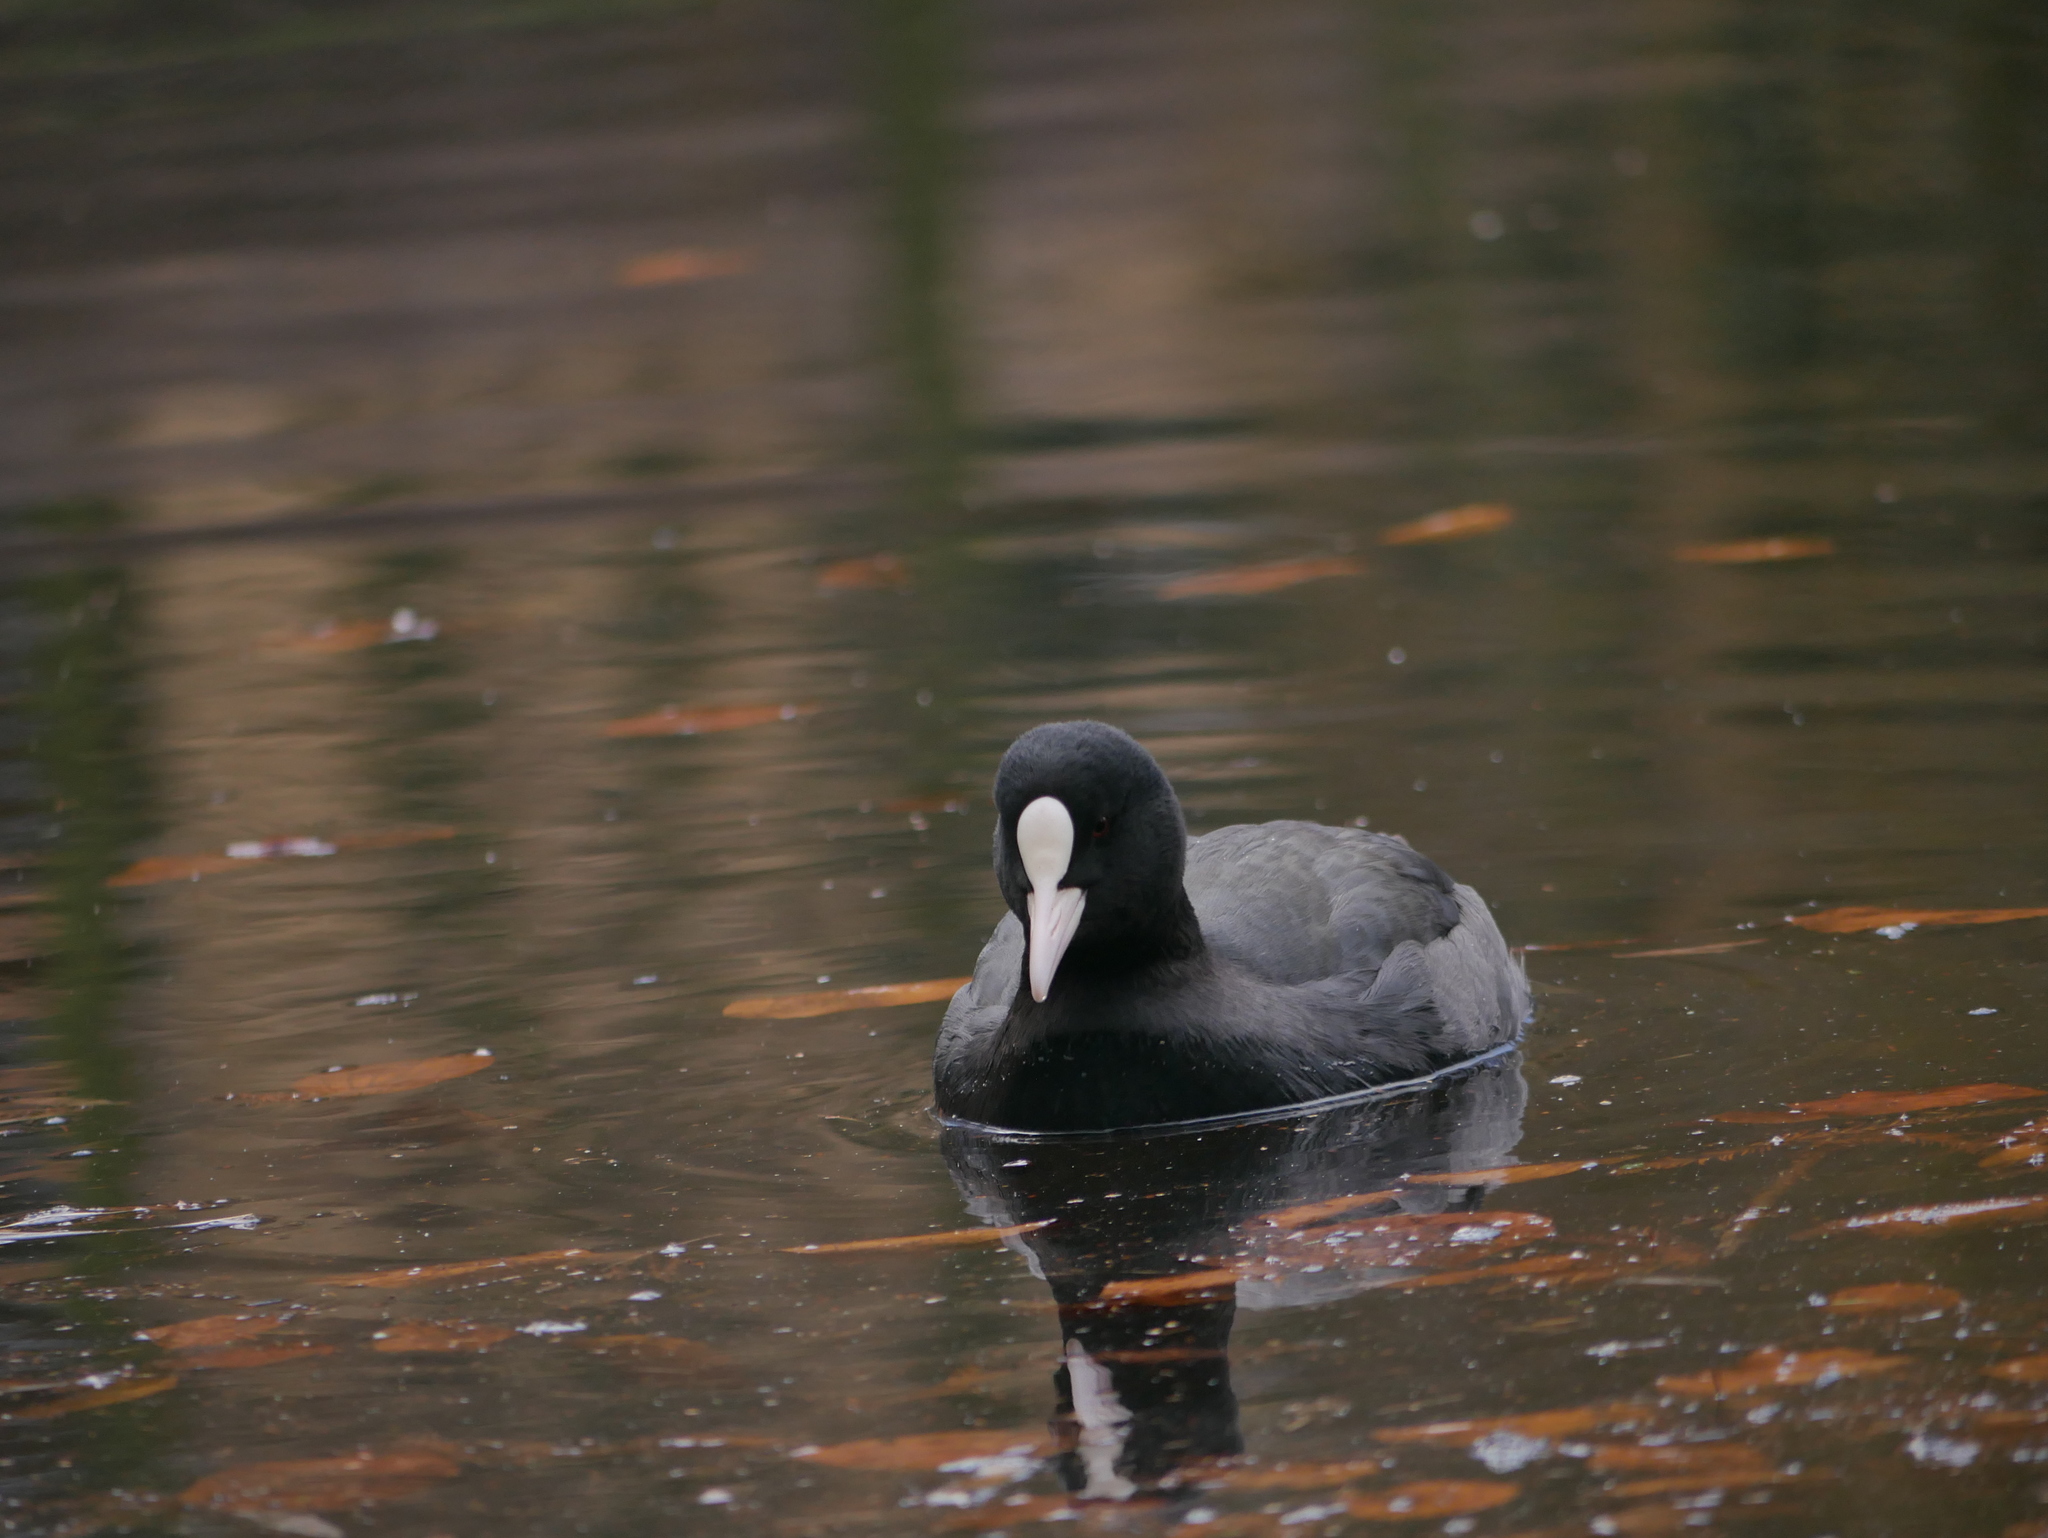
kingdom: Animalia
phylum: Chordata
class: Aves
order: Gruiformes
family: Rallidae
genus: Fulica
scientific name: Fulica atra
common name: Eurasian coot
